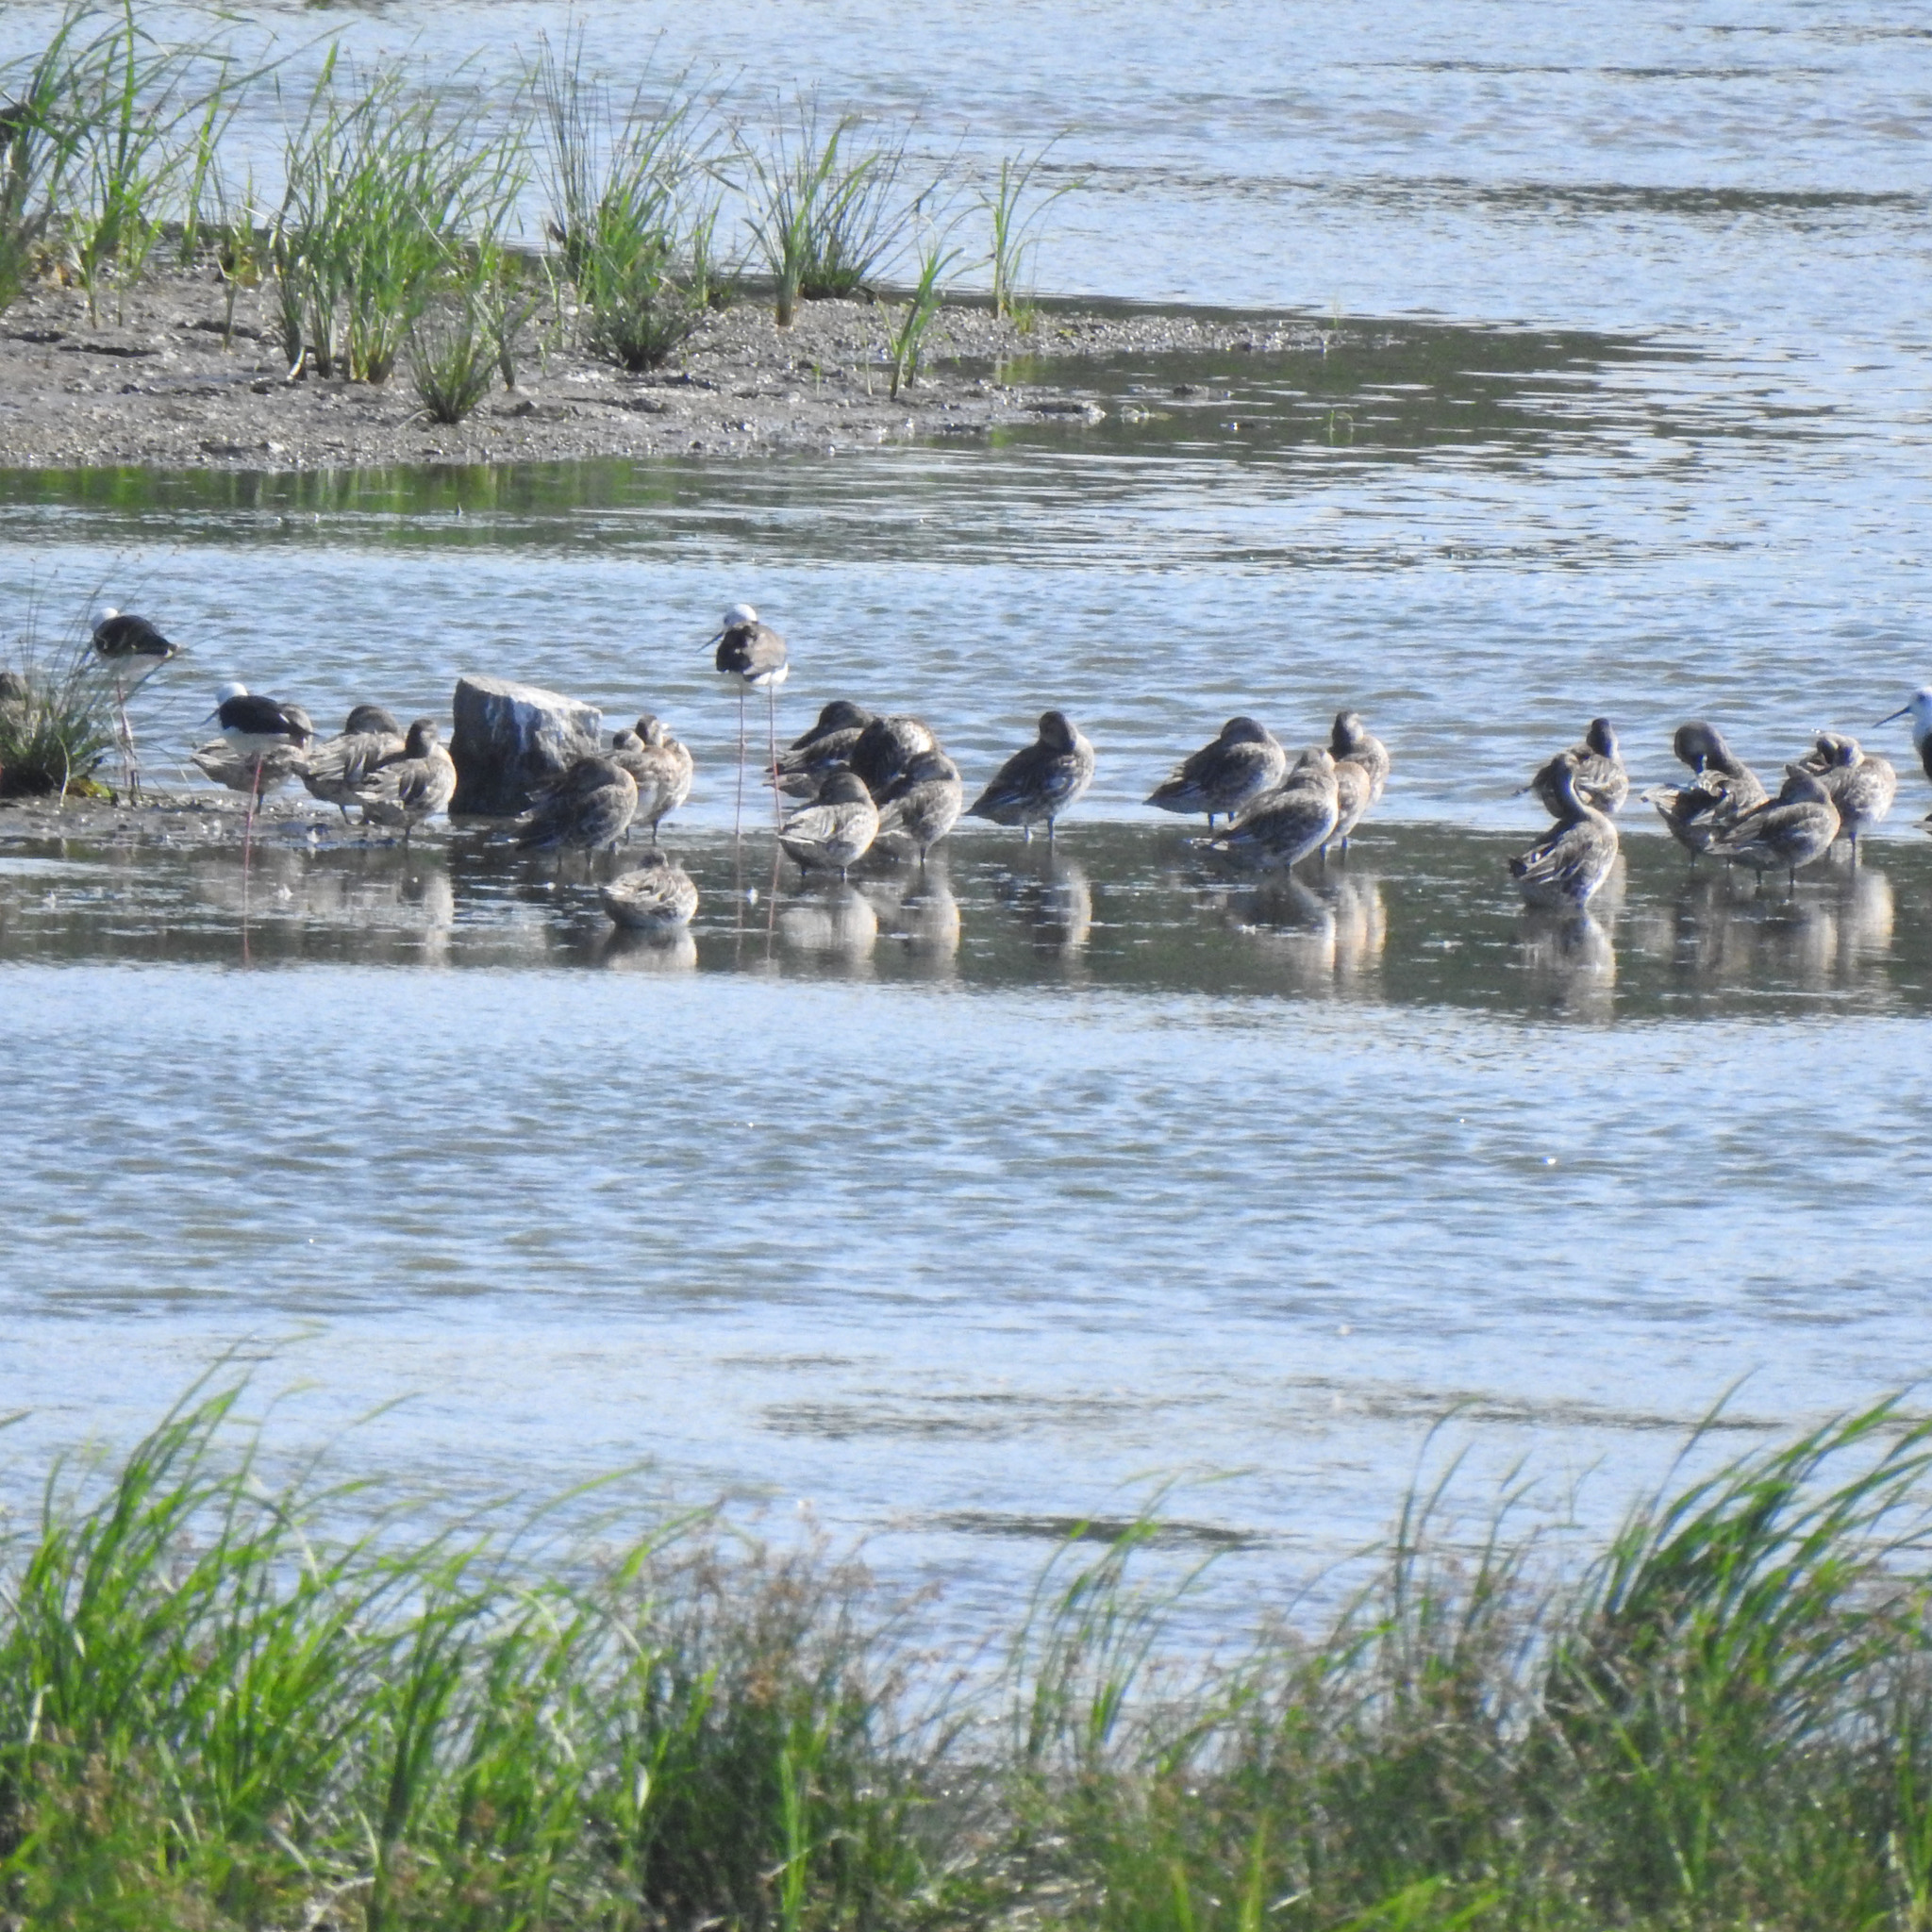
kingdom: Animalia
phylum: Chordata
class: Aves
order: Anseriformes
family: Anatidae
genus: Spatula
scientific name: Spatula querquedula
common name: Garganey
